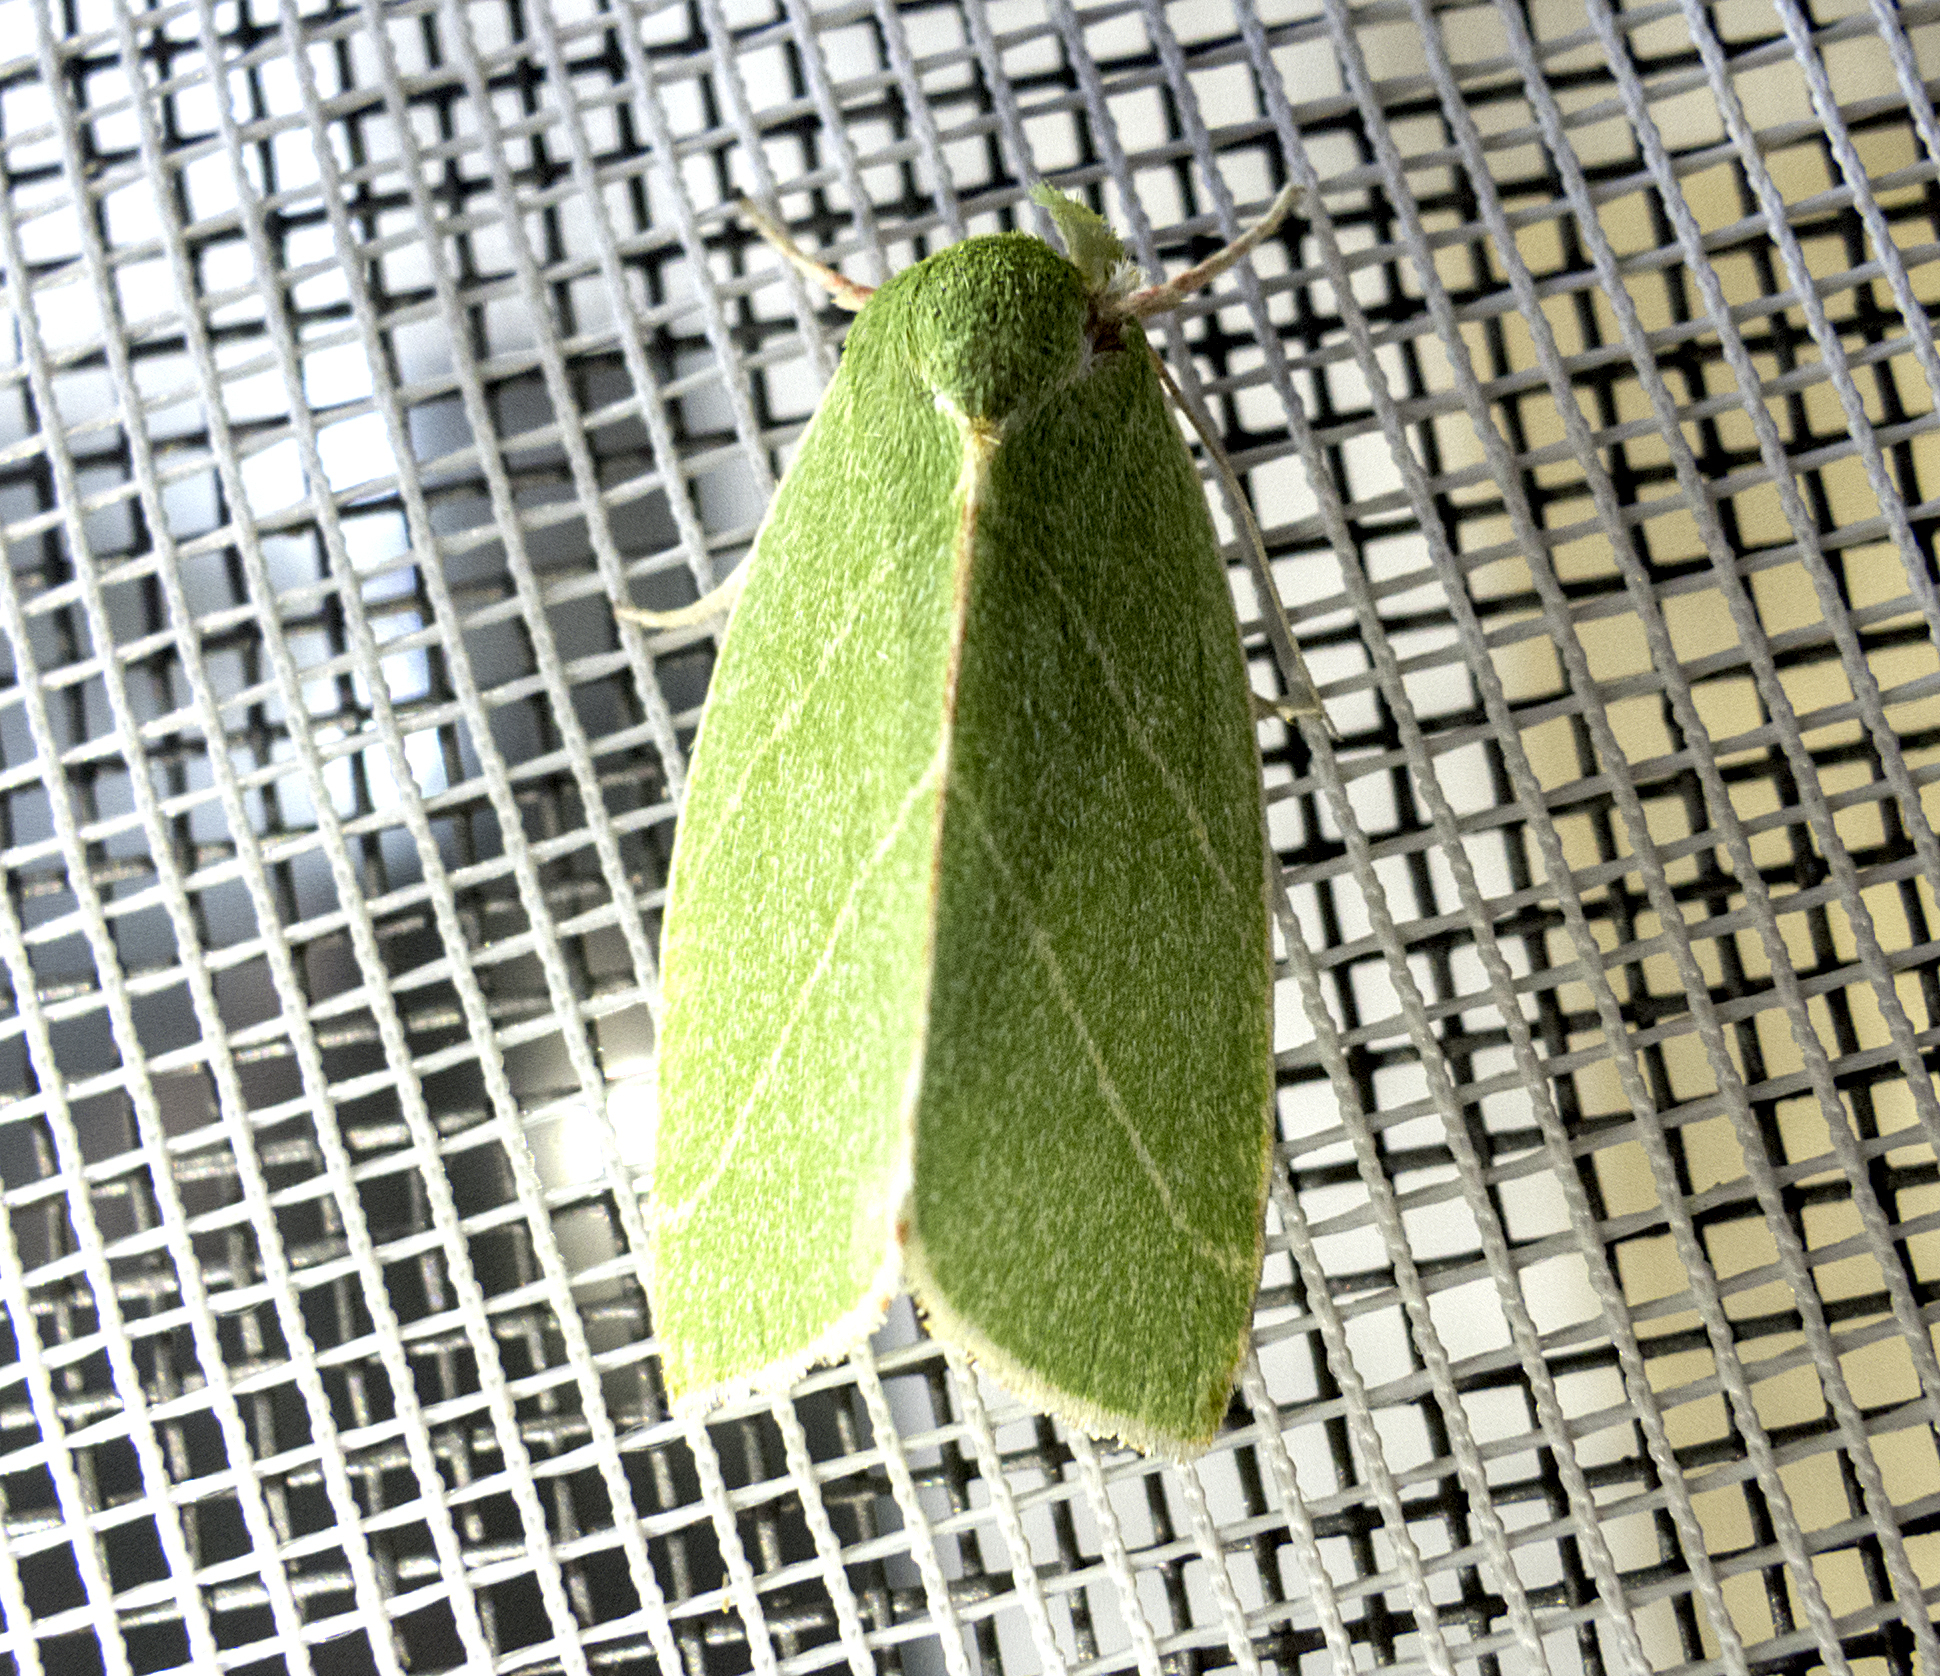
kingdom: Animalia
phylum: Arthropoda
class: Insecta
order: Lepidoptera
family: Nolidae
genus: Bena
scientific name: Bena bicolorana
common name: Scarce silver-lines
